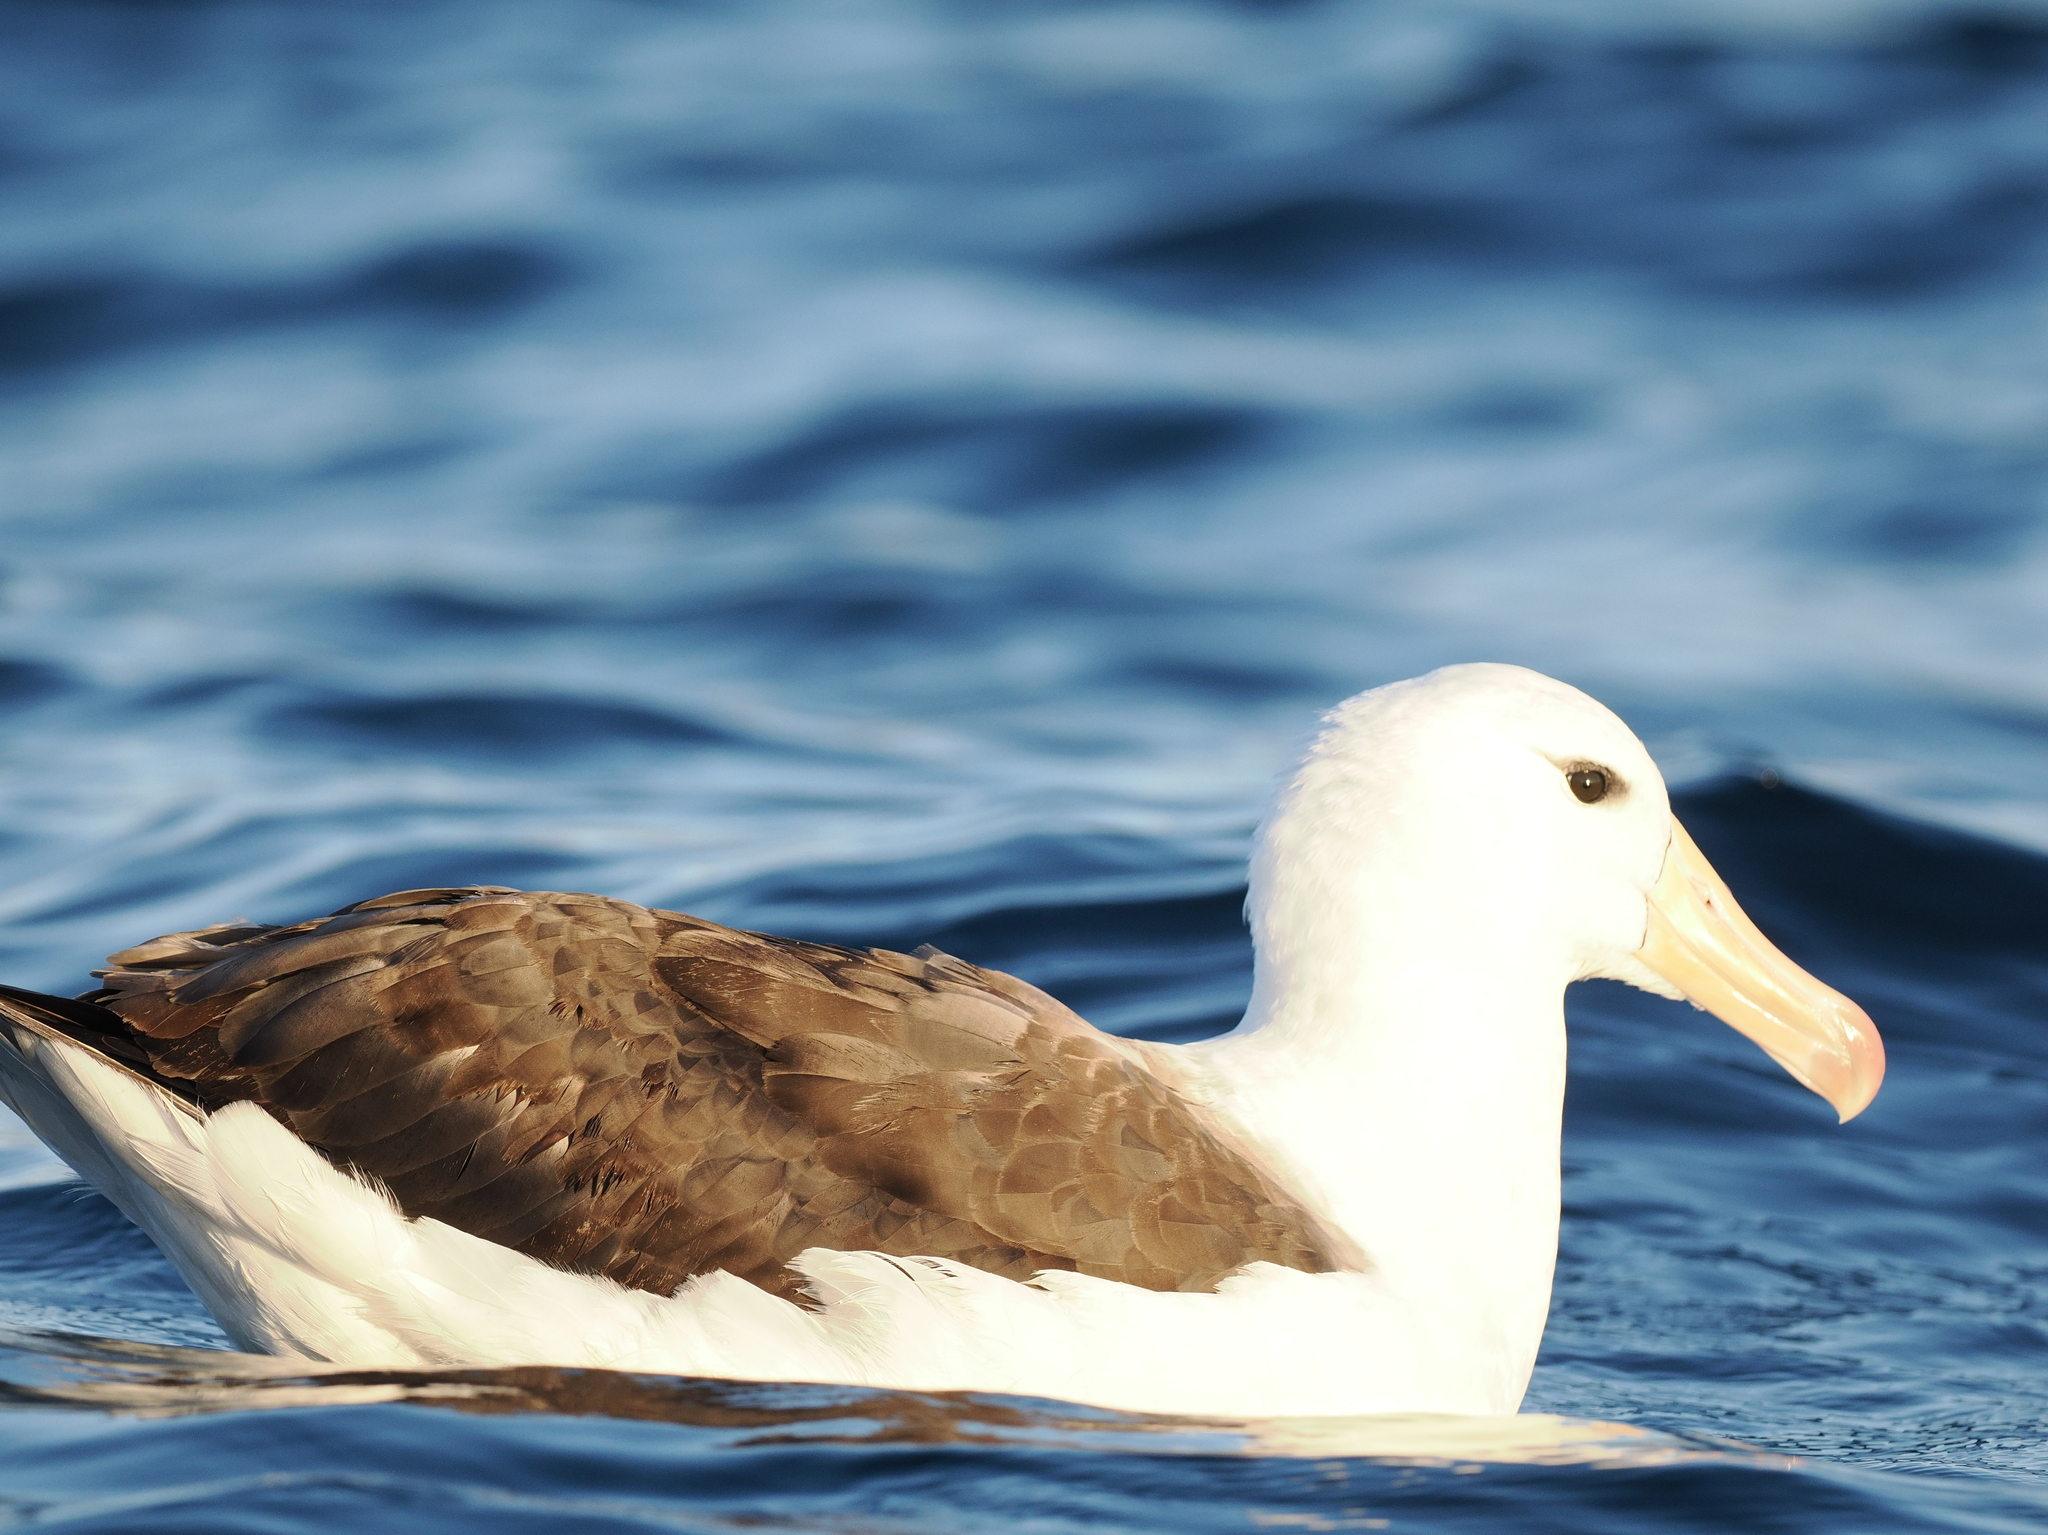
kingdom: Animalia
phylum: Chordata
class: Aves
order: Procellariiformes
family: Diomedeidae
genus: Thalassarche
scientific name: Thalassarche melanophris
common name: Black-browed albatross
